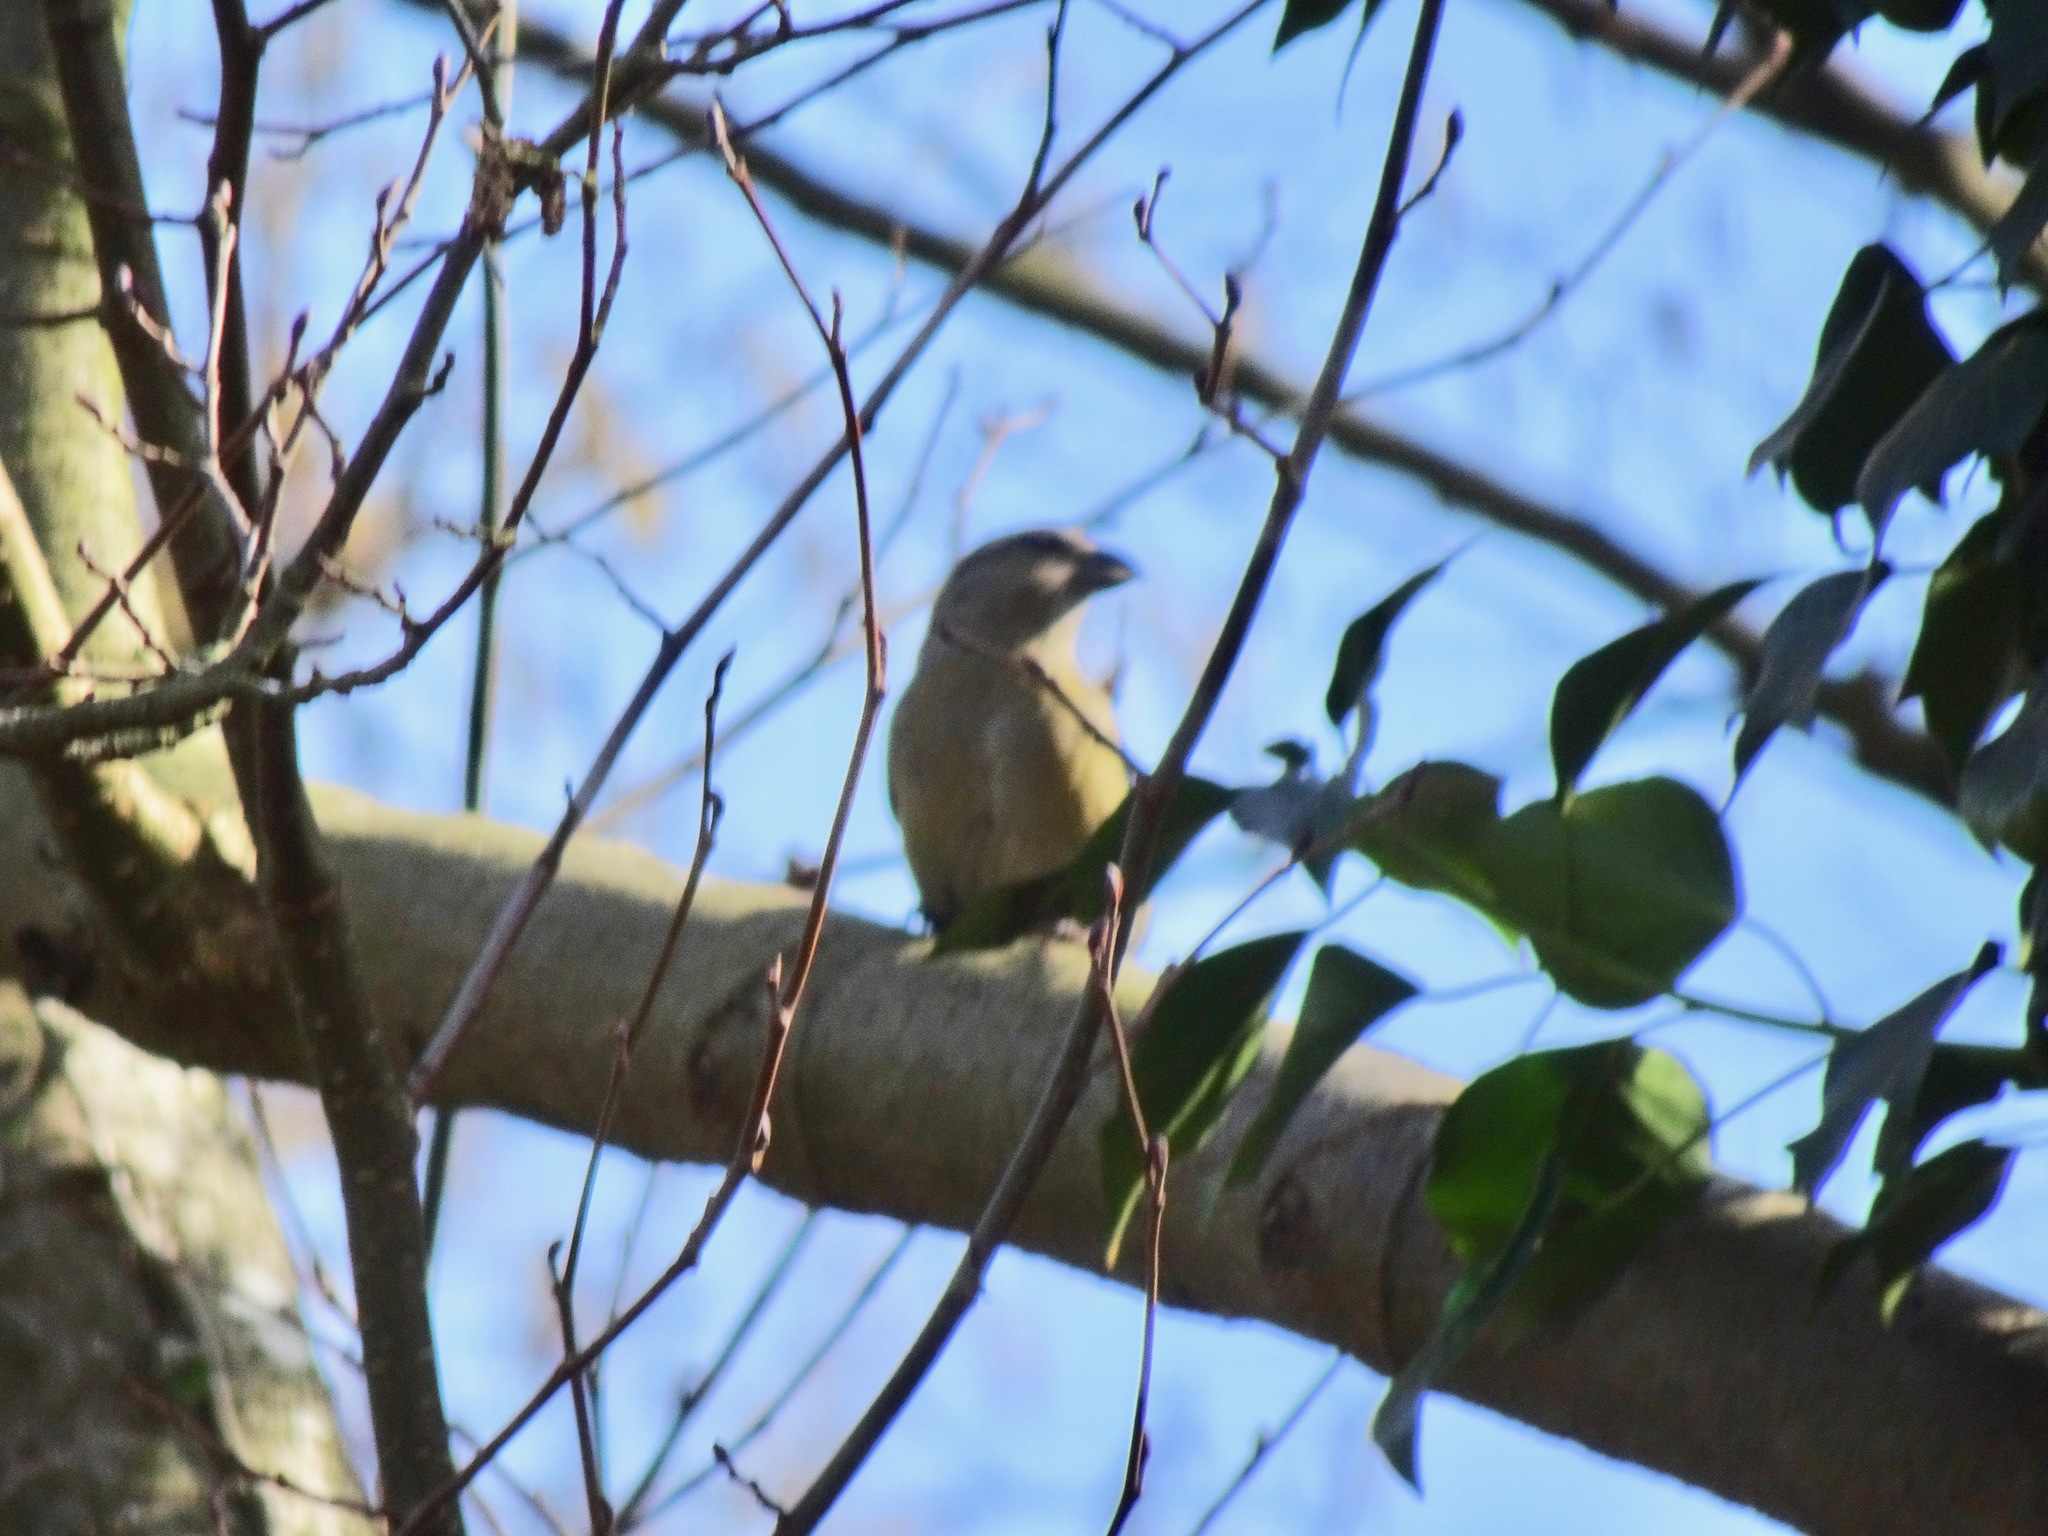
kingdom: Animalia
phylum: Chordata
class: Aves
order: Passeriformes
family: Fringillidae
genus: Loxia
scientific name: Loxia curvirostra
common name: Red crossbill
